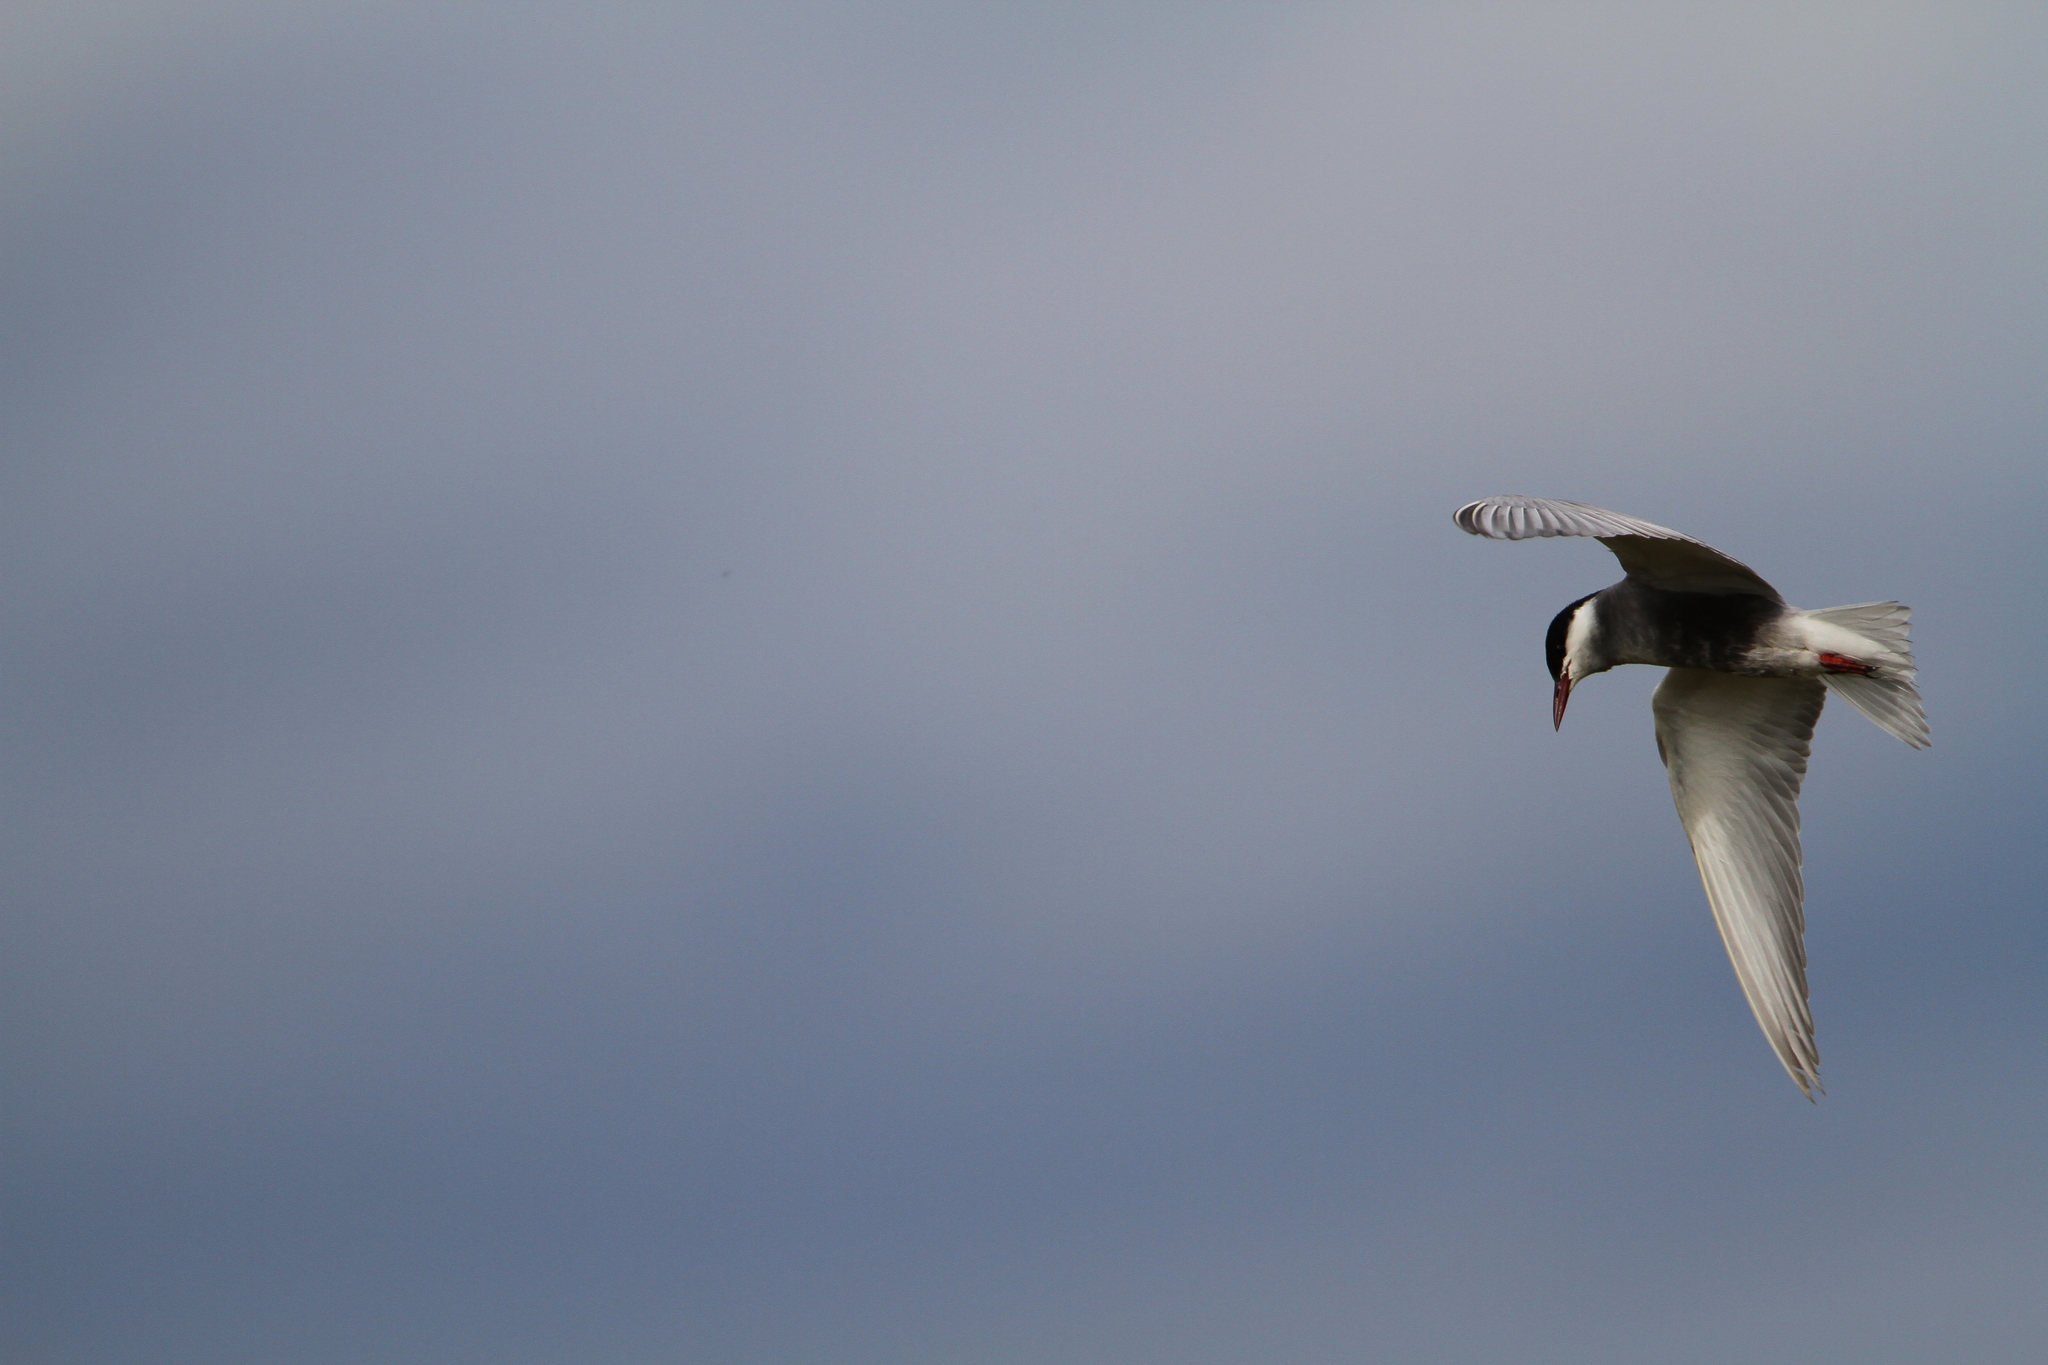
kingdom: Animalia
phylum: Chordata
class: Aves
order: Charadriiformes
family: Laridae
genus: Chlidonias
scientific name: Chlidonias hybrida
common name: Whiskered tern
